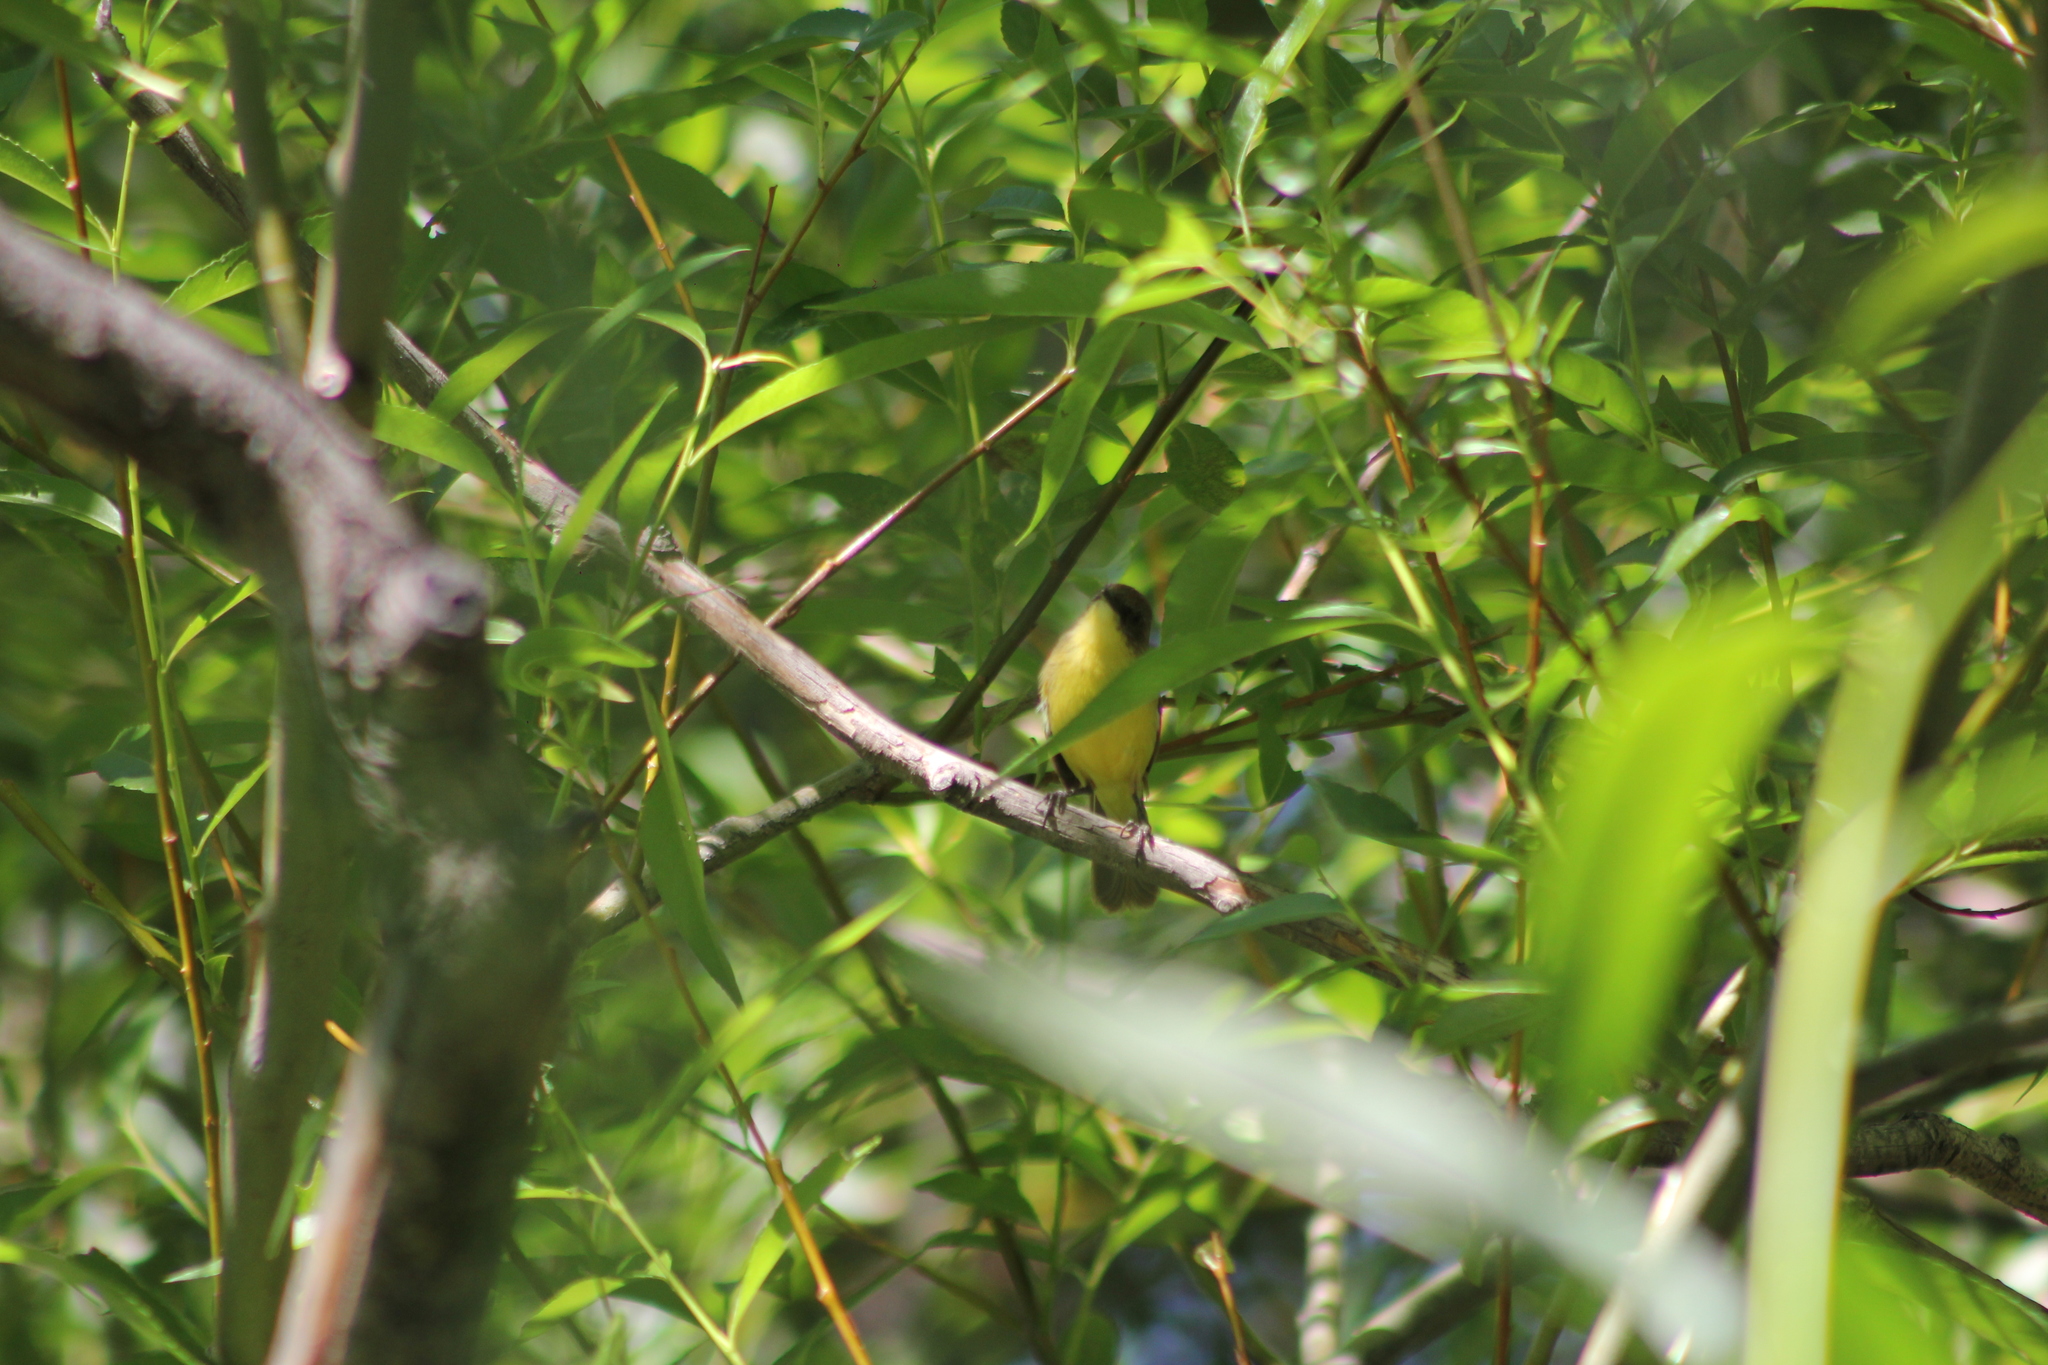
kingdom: Animalia
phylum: Chordata
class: Aves
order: Passeriformes
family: Tyrannidae
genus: Pseudocolopteryx
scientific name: Pseudocolopteryx citreola
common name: Ticking doradito
